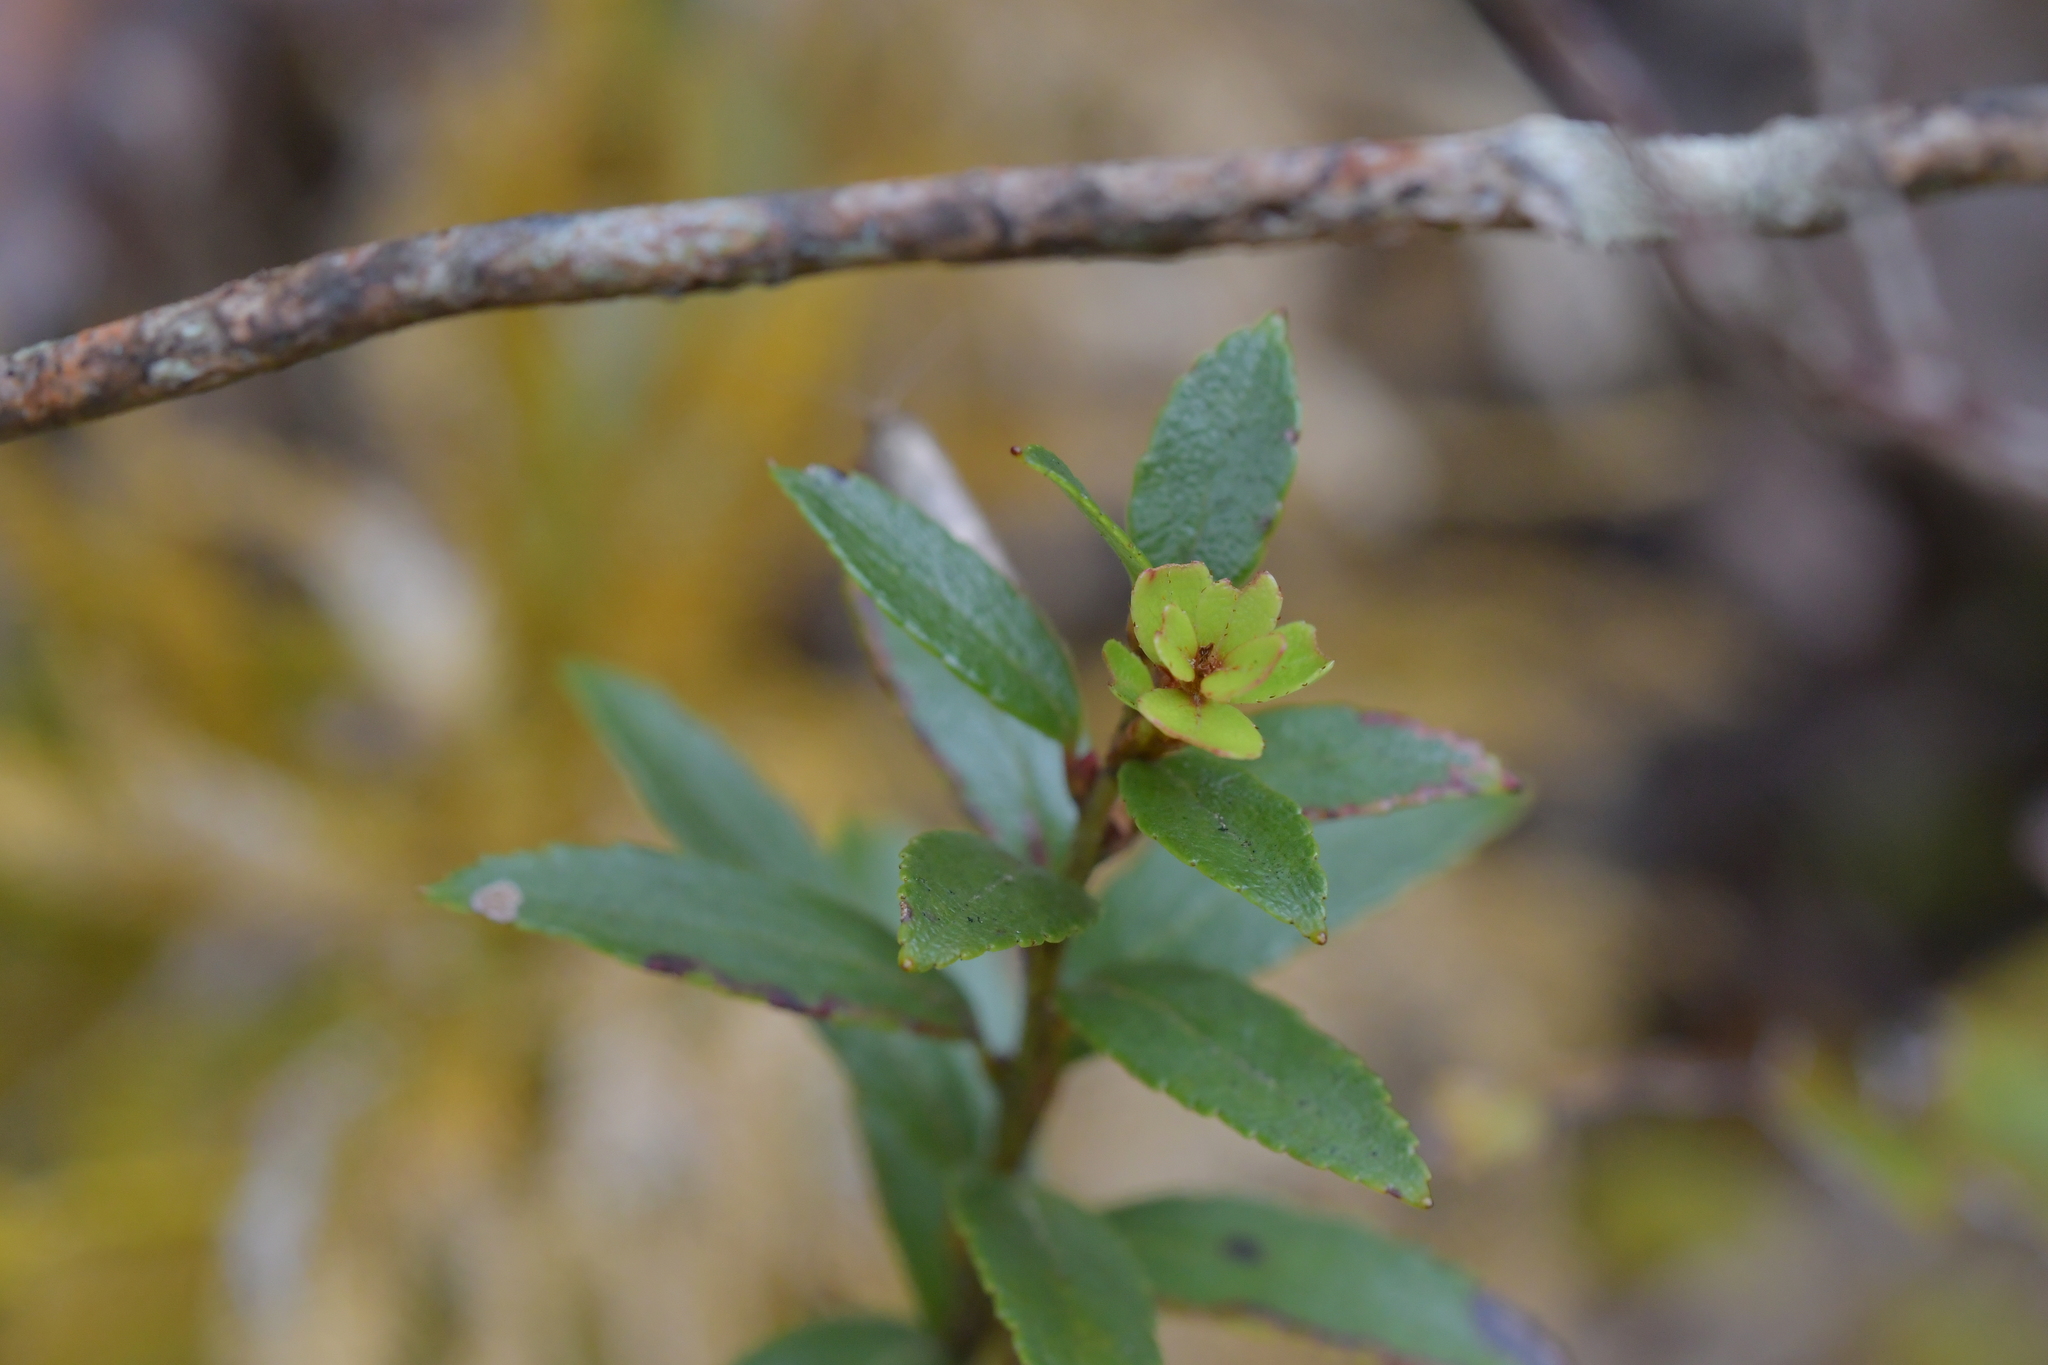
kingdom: Plantae
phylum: Tracheophyta
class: Magnoliopsida
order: Ericales
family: Ericaceae
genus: Gaultheria
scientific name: Gaultheria rupestris
